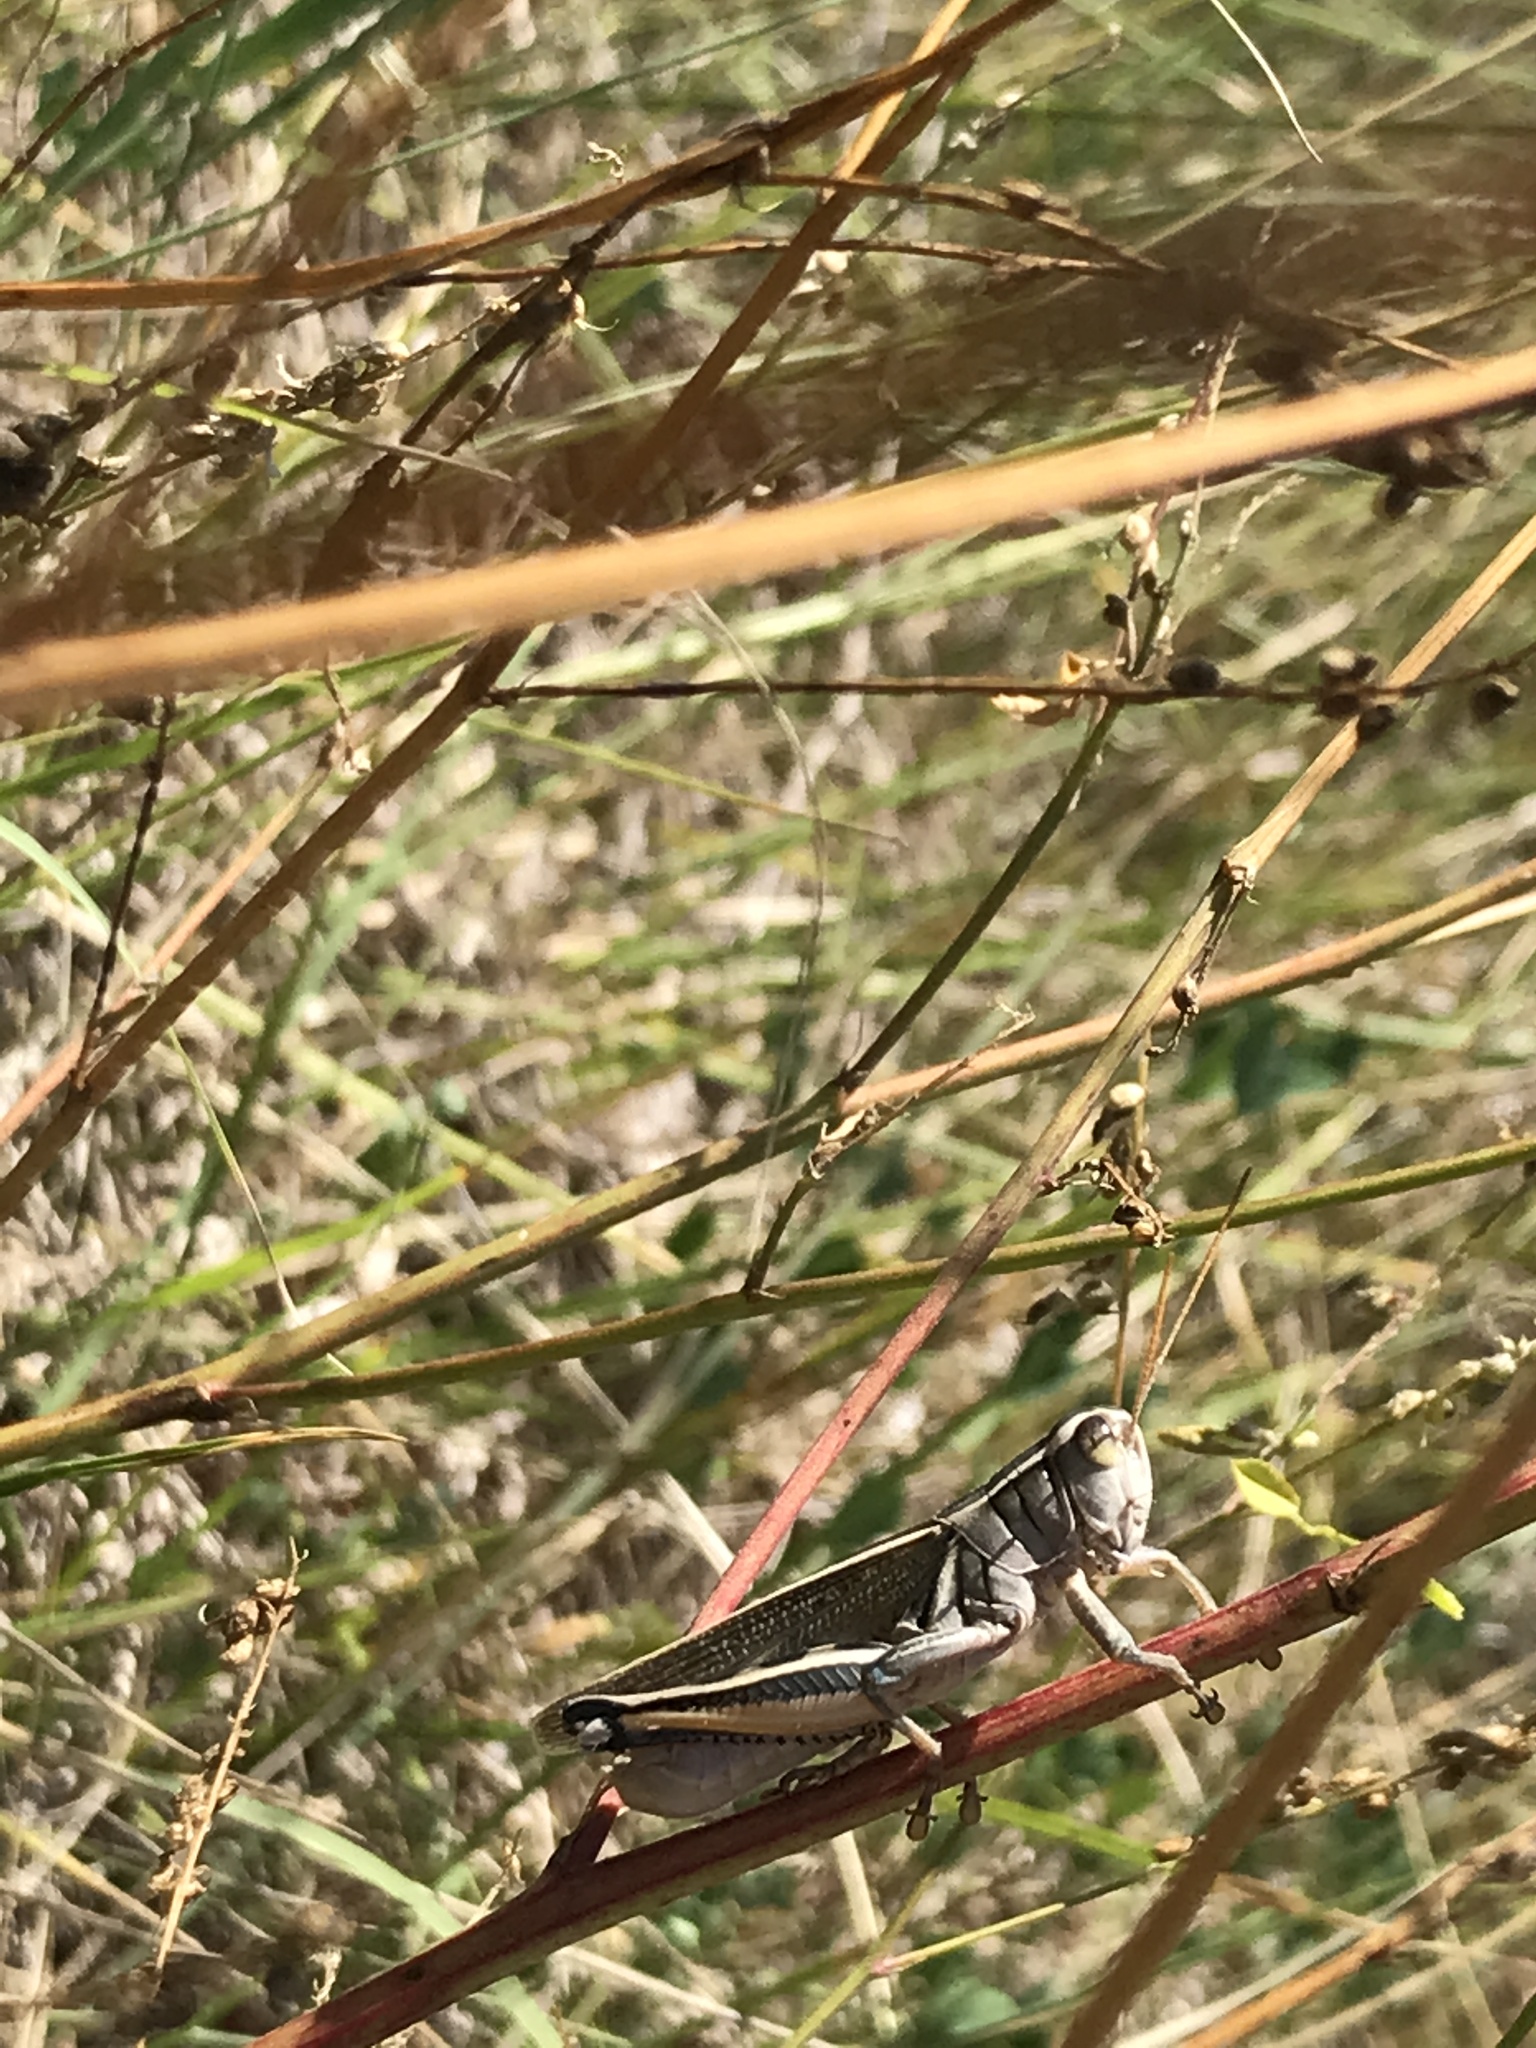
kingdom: Animalia
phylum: Arthropoda
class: Insecta
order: Orthoptera
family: Acrididae
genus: Melanoplus
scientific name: Melanoplus bivittatus
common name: Two-striped grasshopper
